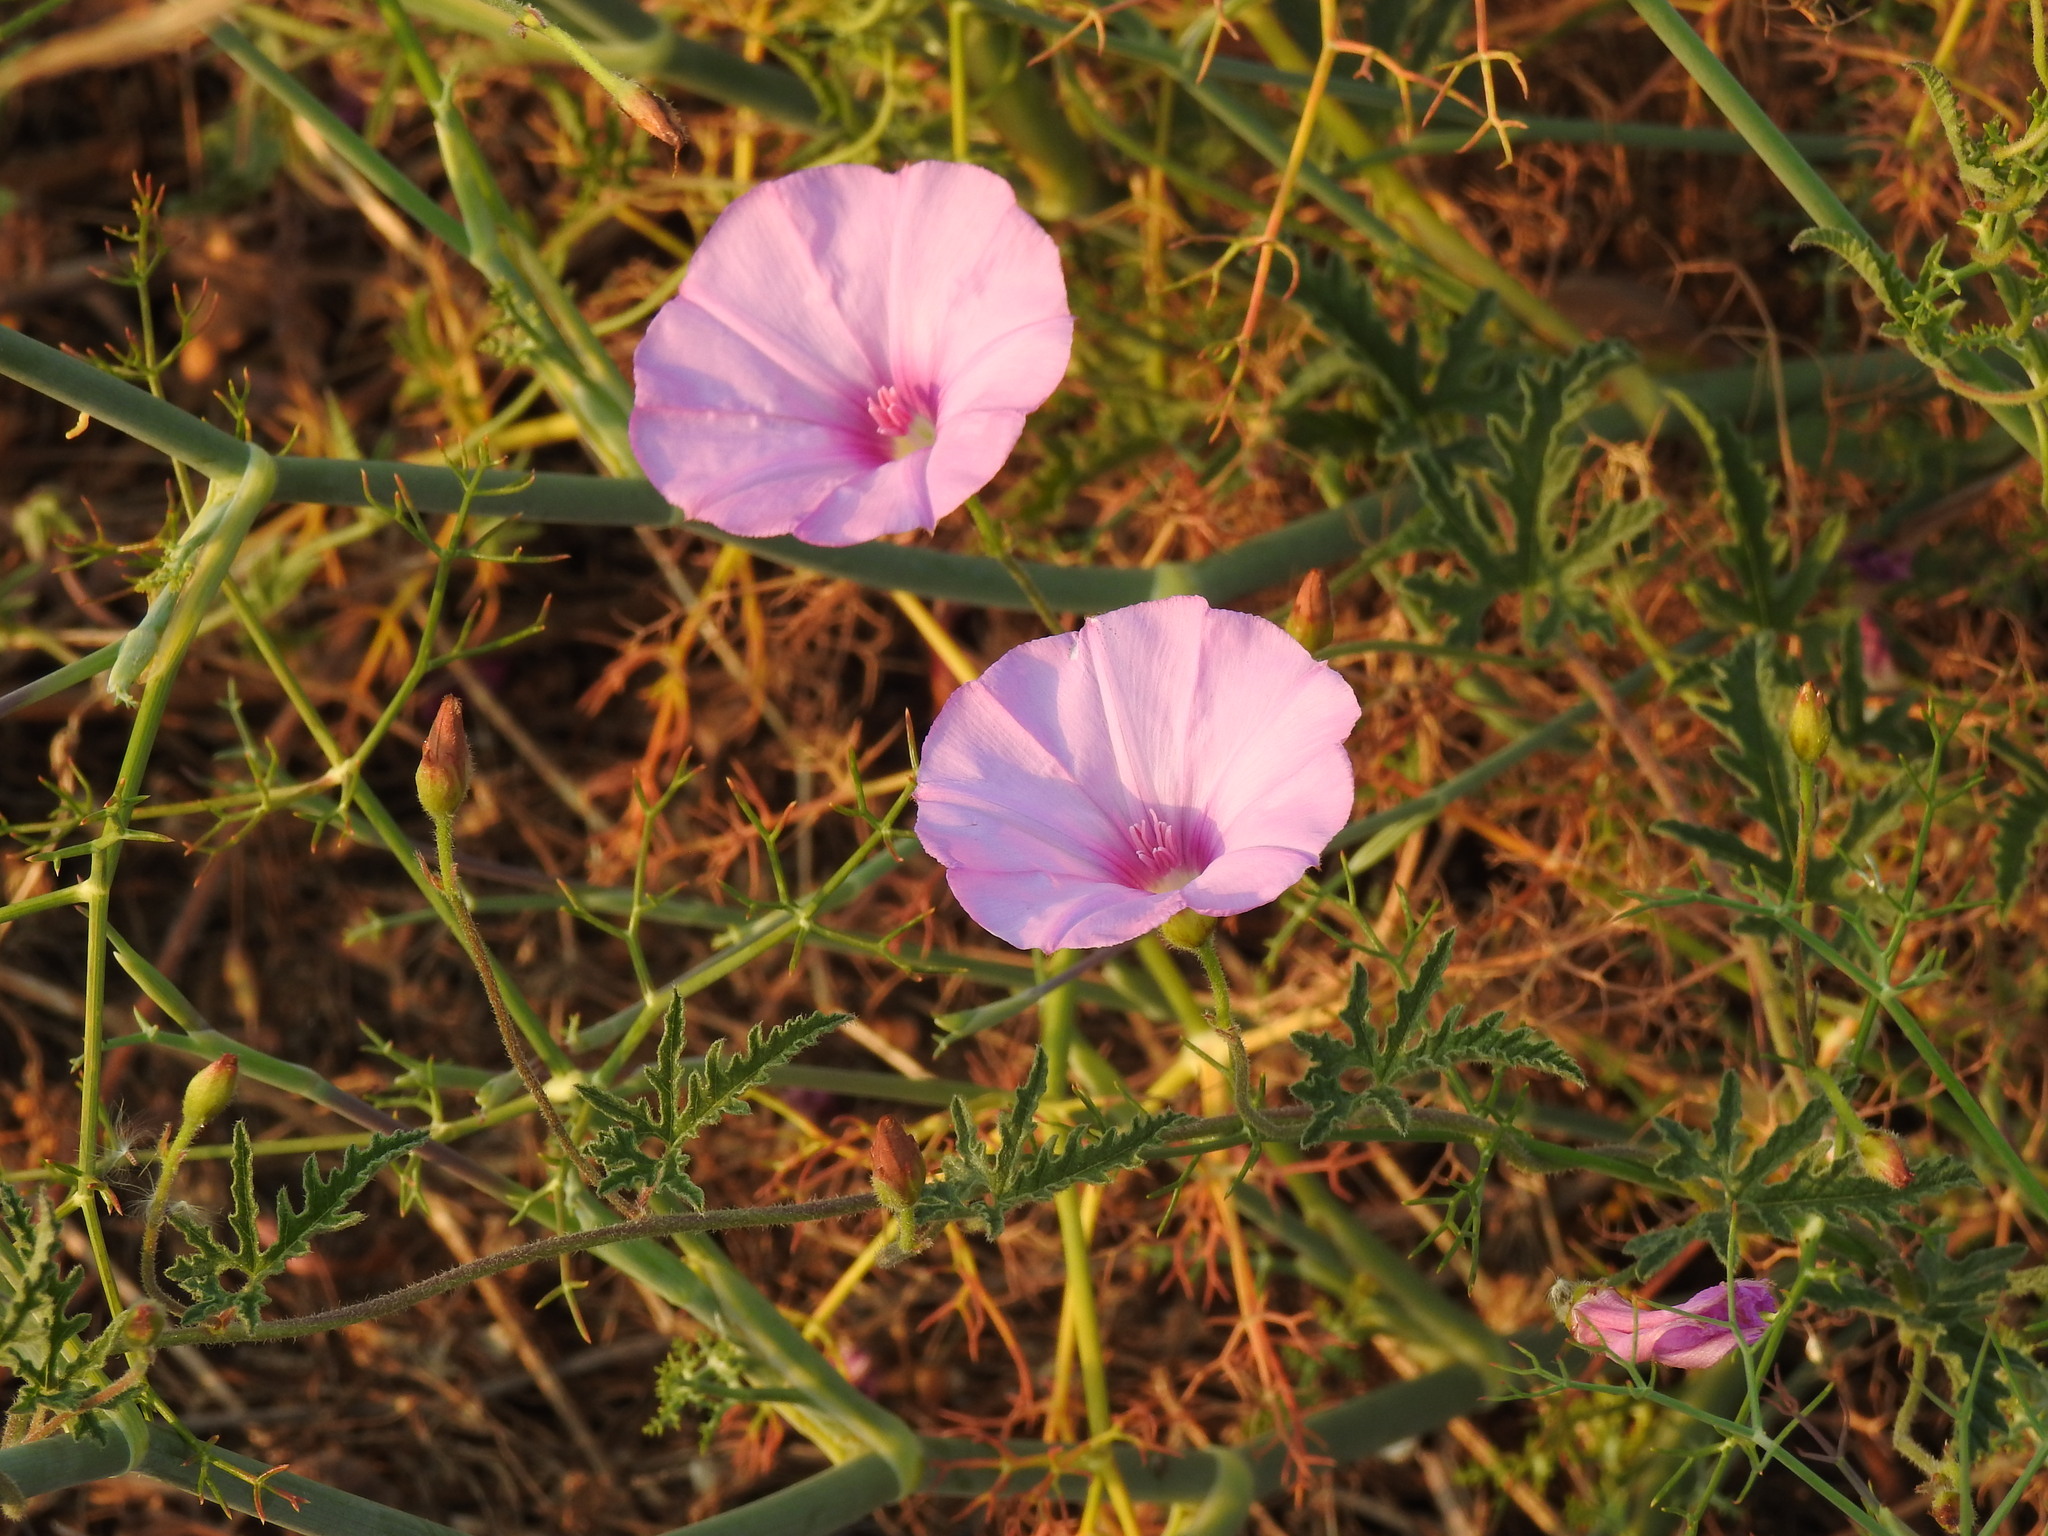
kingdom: Plantae
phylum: Tracheophyta
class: Magnoliopsida
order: Solanales
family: Convolvulaceae
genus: Convolvulus
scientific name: Convolvulus althaeoides
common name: Mallow bindweed
